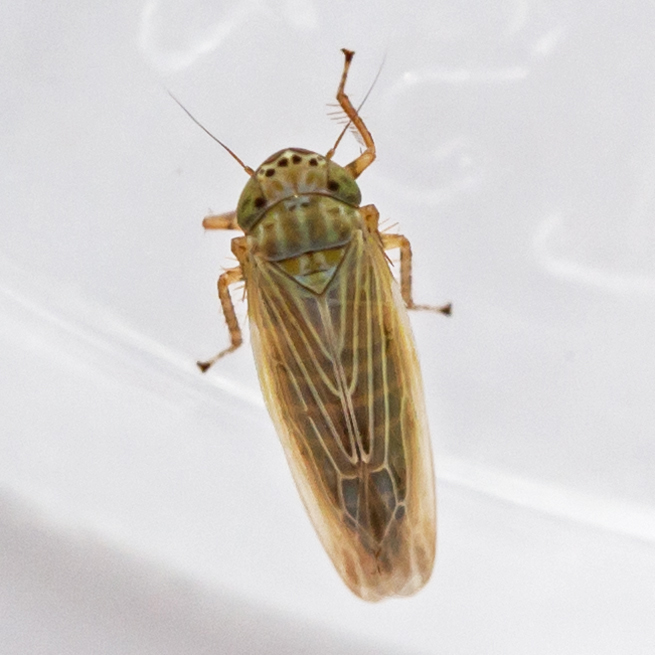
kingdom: Animalia
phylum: Arthropoda
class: Insecta
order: Hemiptera
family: Cicadellidae
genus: Graminella
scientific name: Graminella nigrifrons
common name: Blackfaced leafhopper
